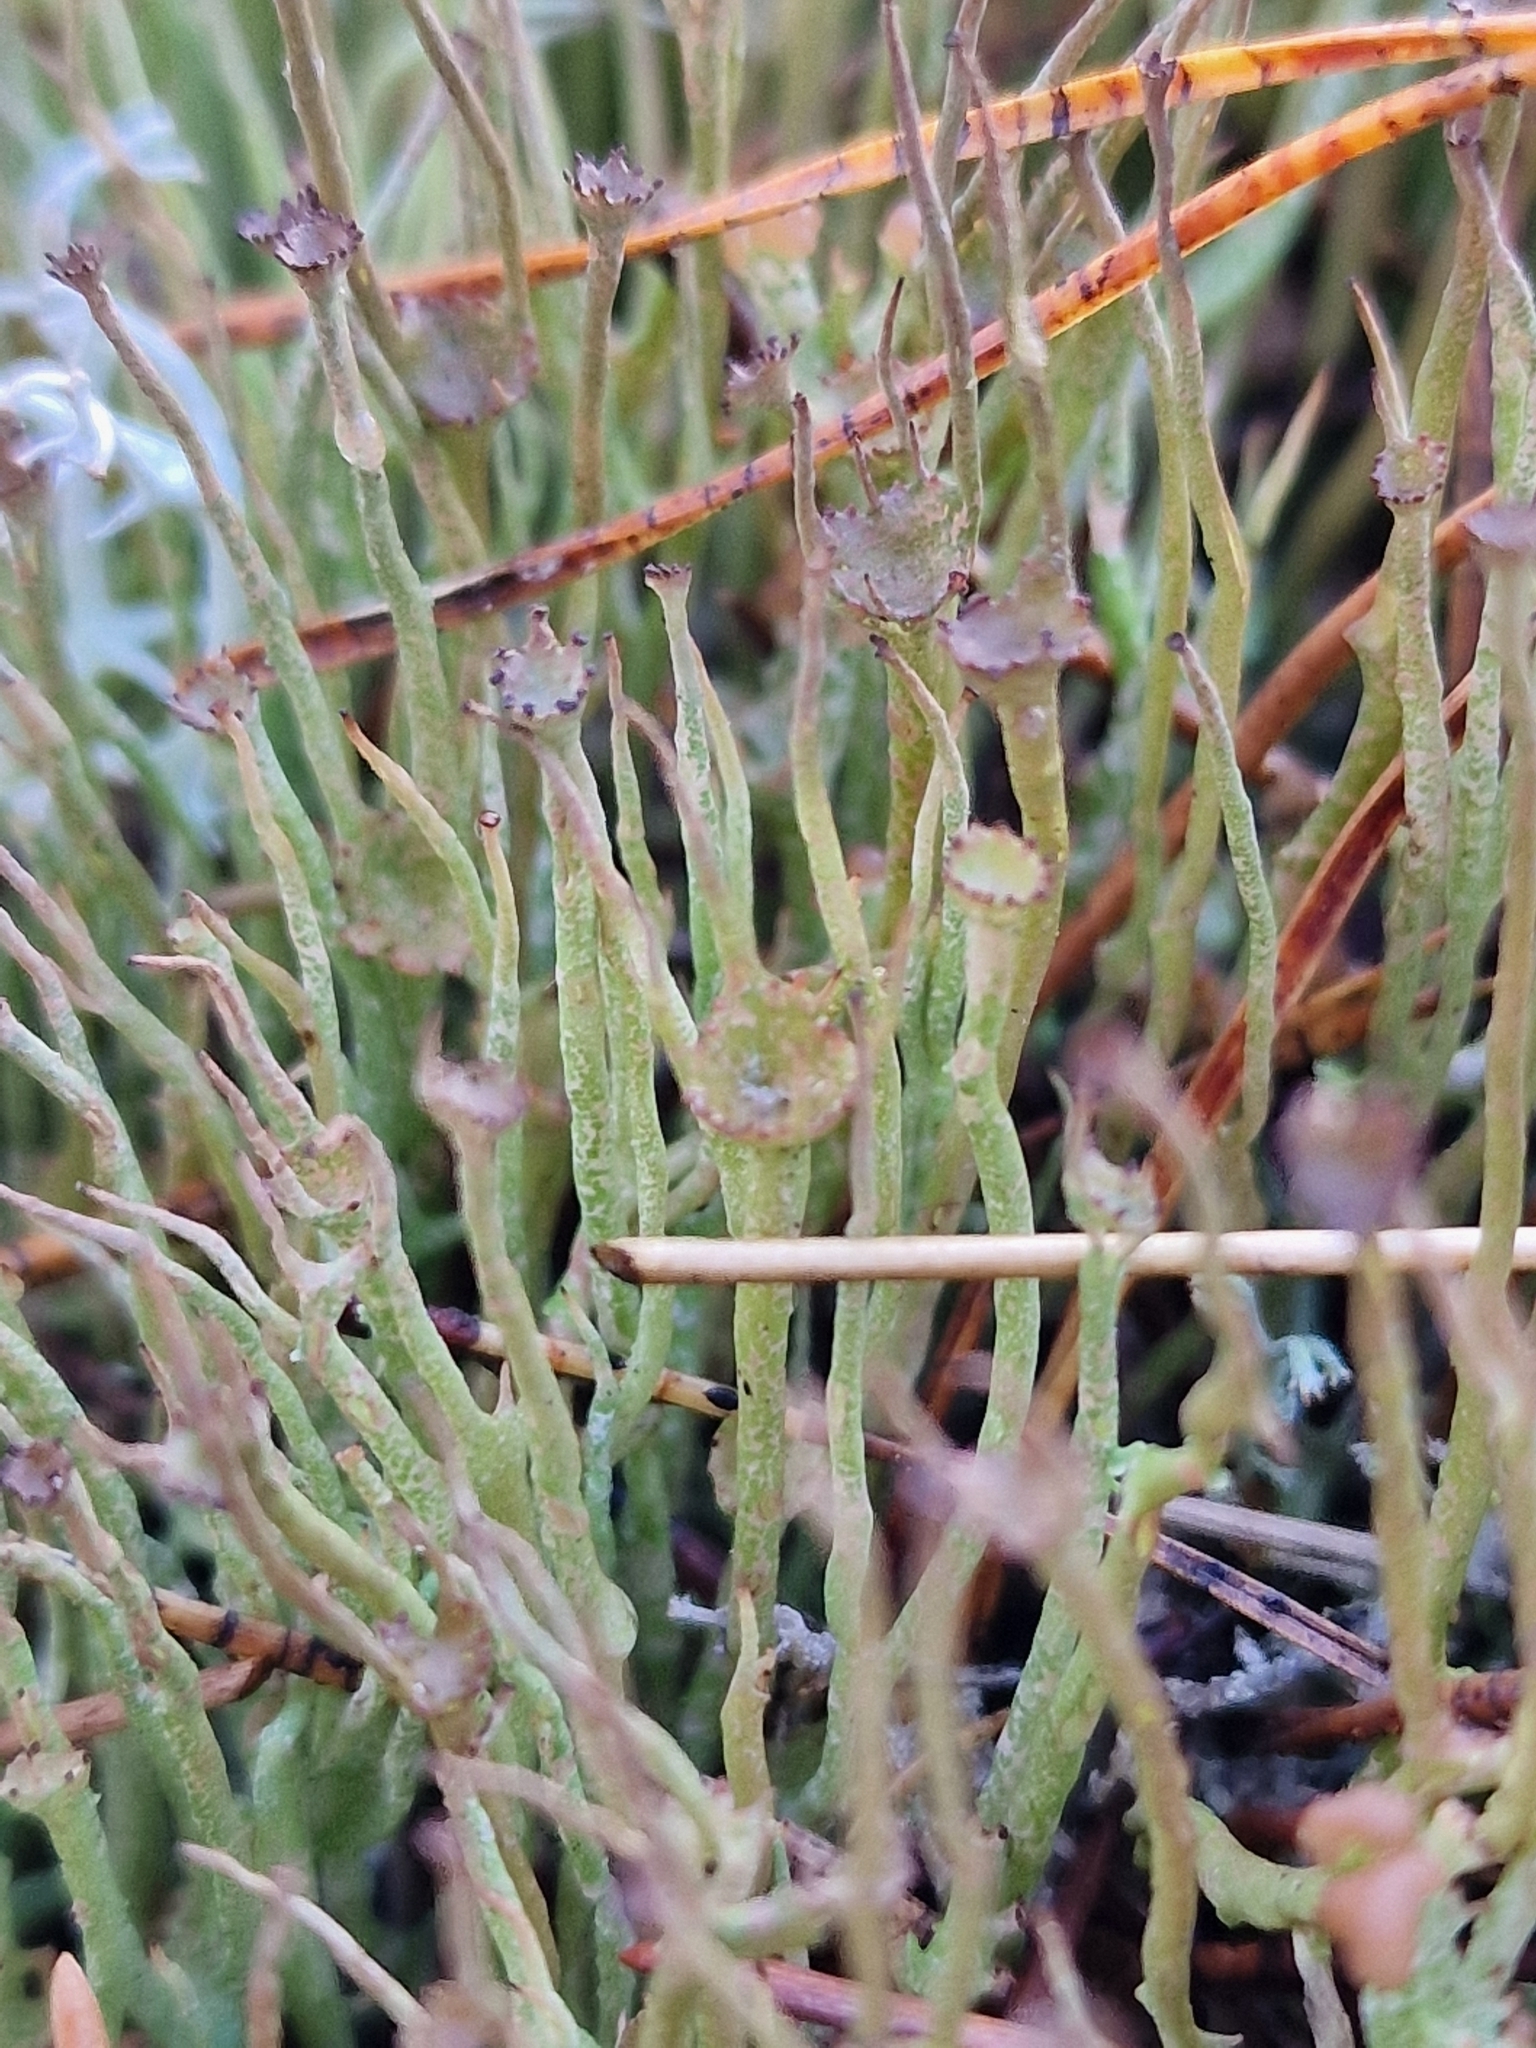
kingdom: Fungi
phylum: Ascomycota
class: Lecanoromycetes
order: Lecanorales
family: Cladoniaceae
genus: Cladonia
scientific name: Cladonia gracilis
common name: Smooth clad lichen
